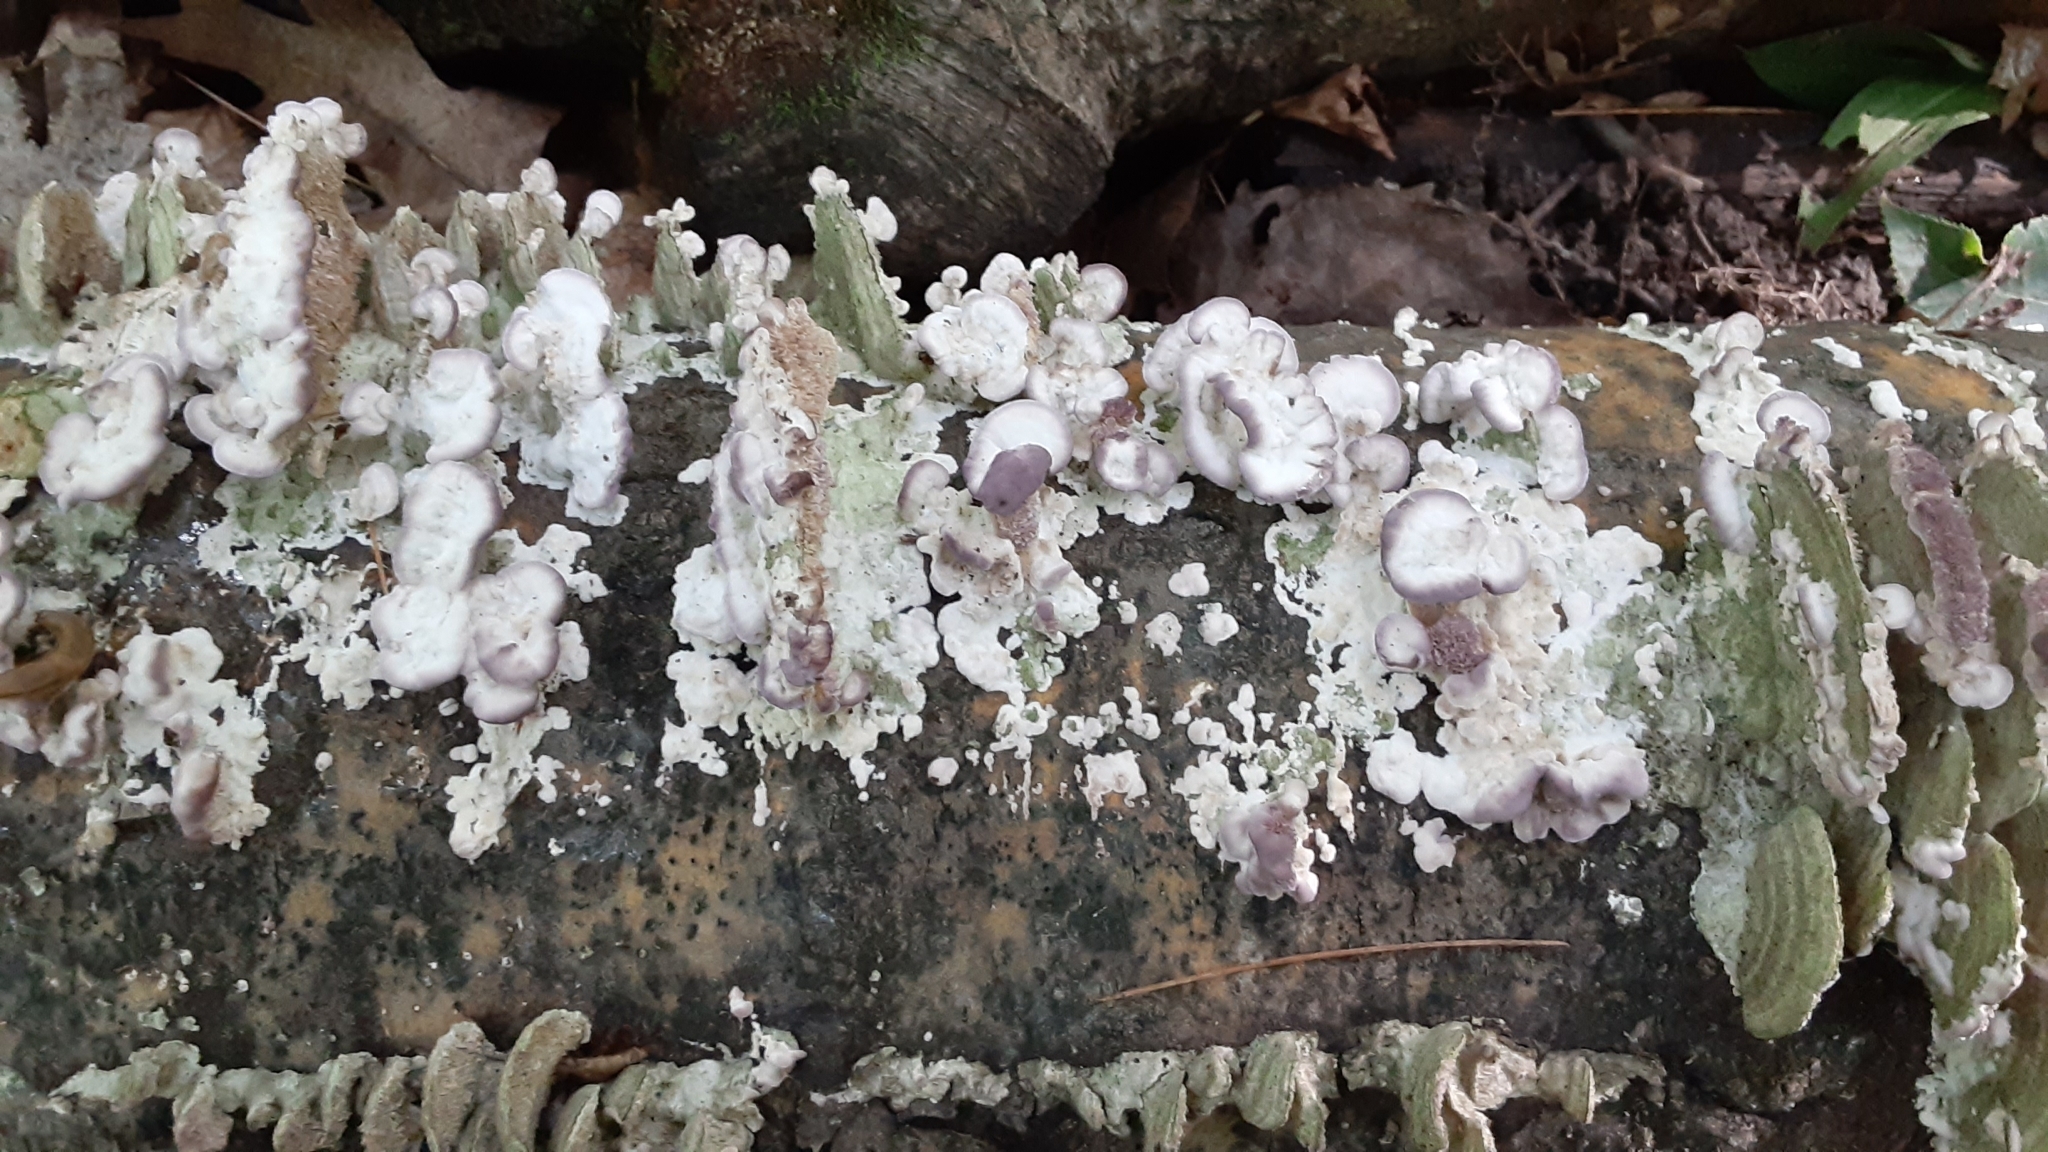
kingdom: Fungi
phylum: Basidiomycota
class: Agaricomycetes
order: Hymenochaetales
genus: Trichaptum
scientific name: Trichaptum biforme
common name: Violet-toothed polypore
